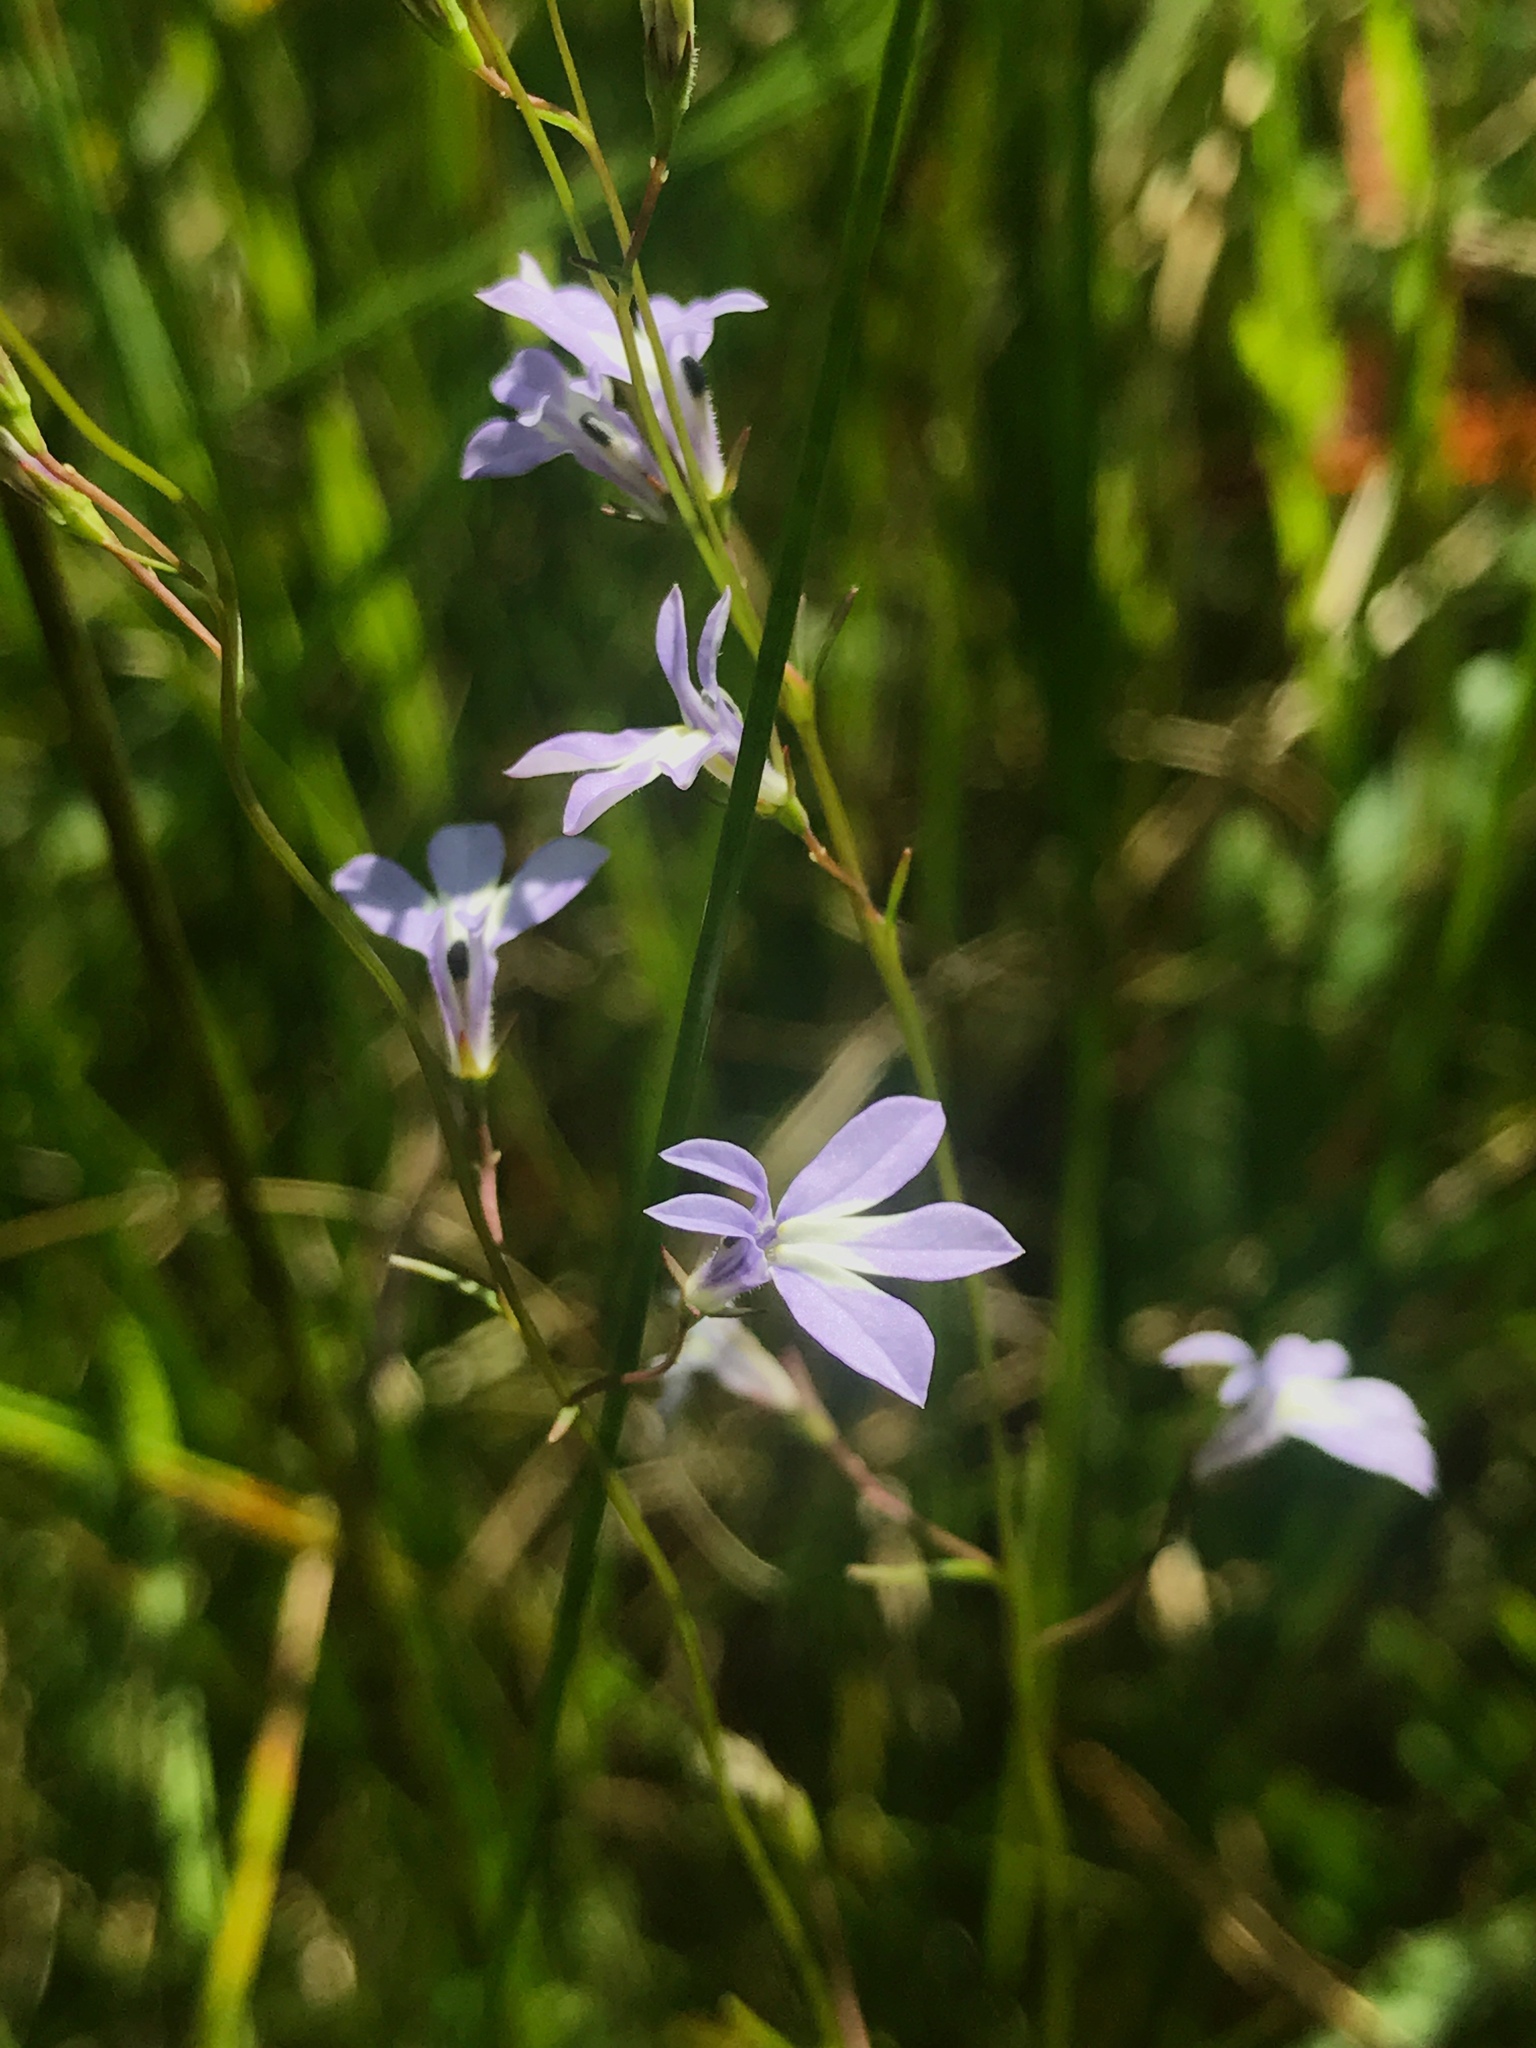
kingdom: Plantae
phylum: Tracheophyta
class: Magnoliopsida
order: Asterales
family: Campanulaceae
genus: Lobelia
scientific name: Lobelia kalmii
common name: Kalm's lobelia
